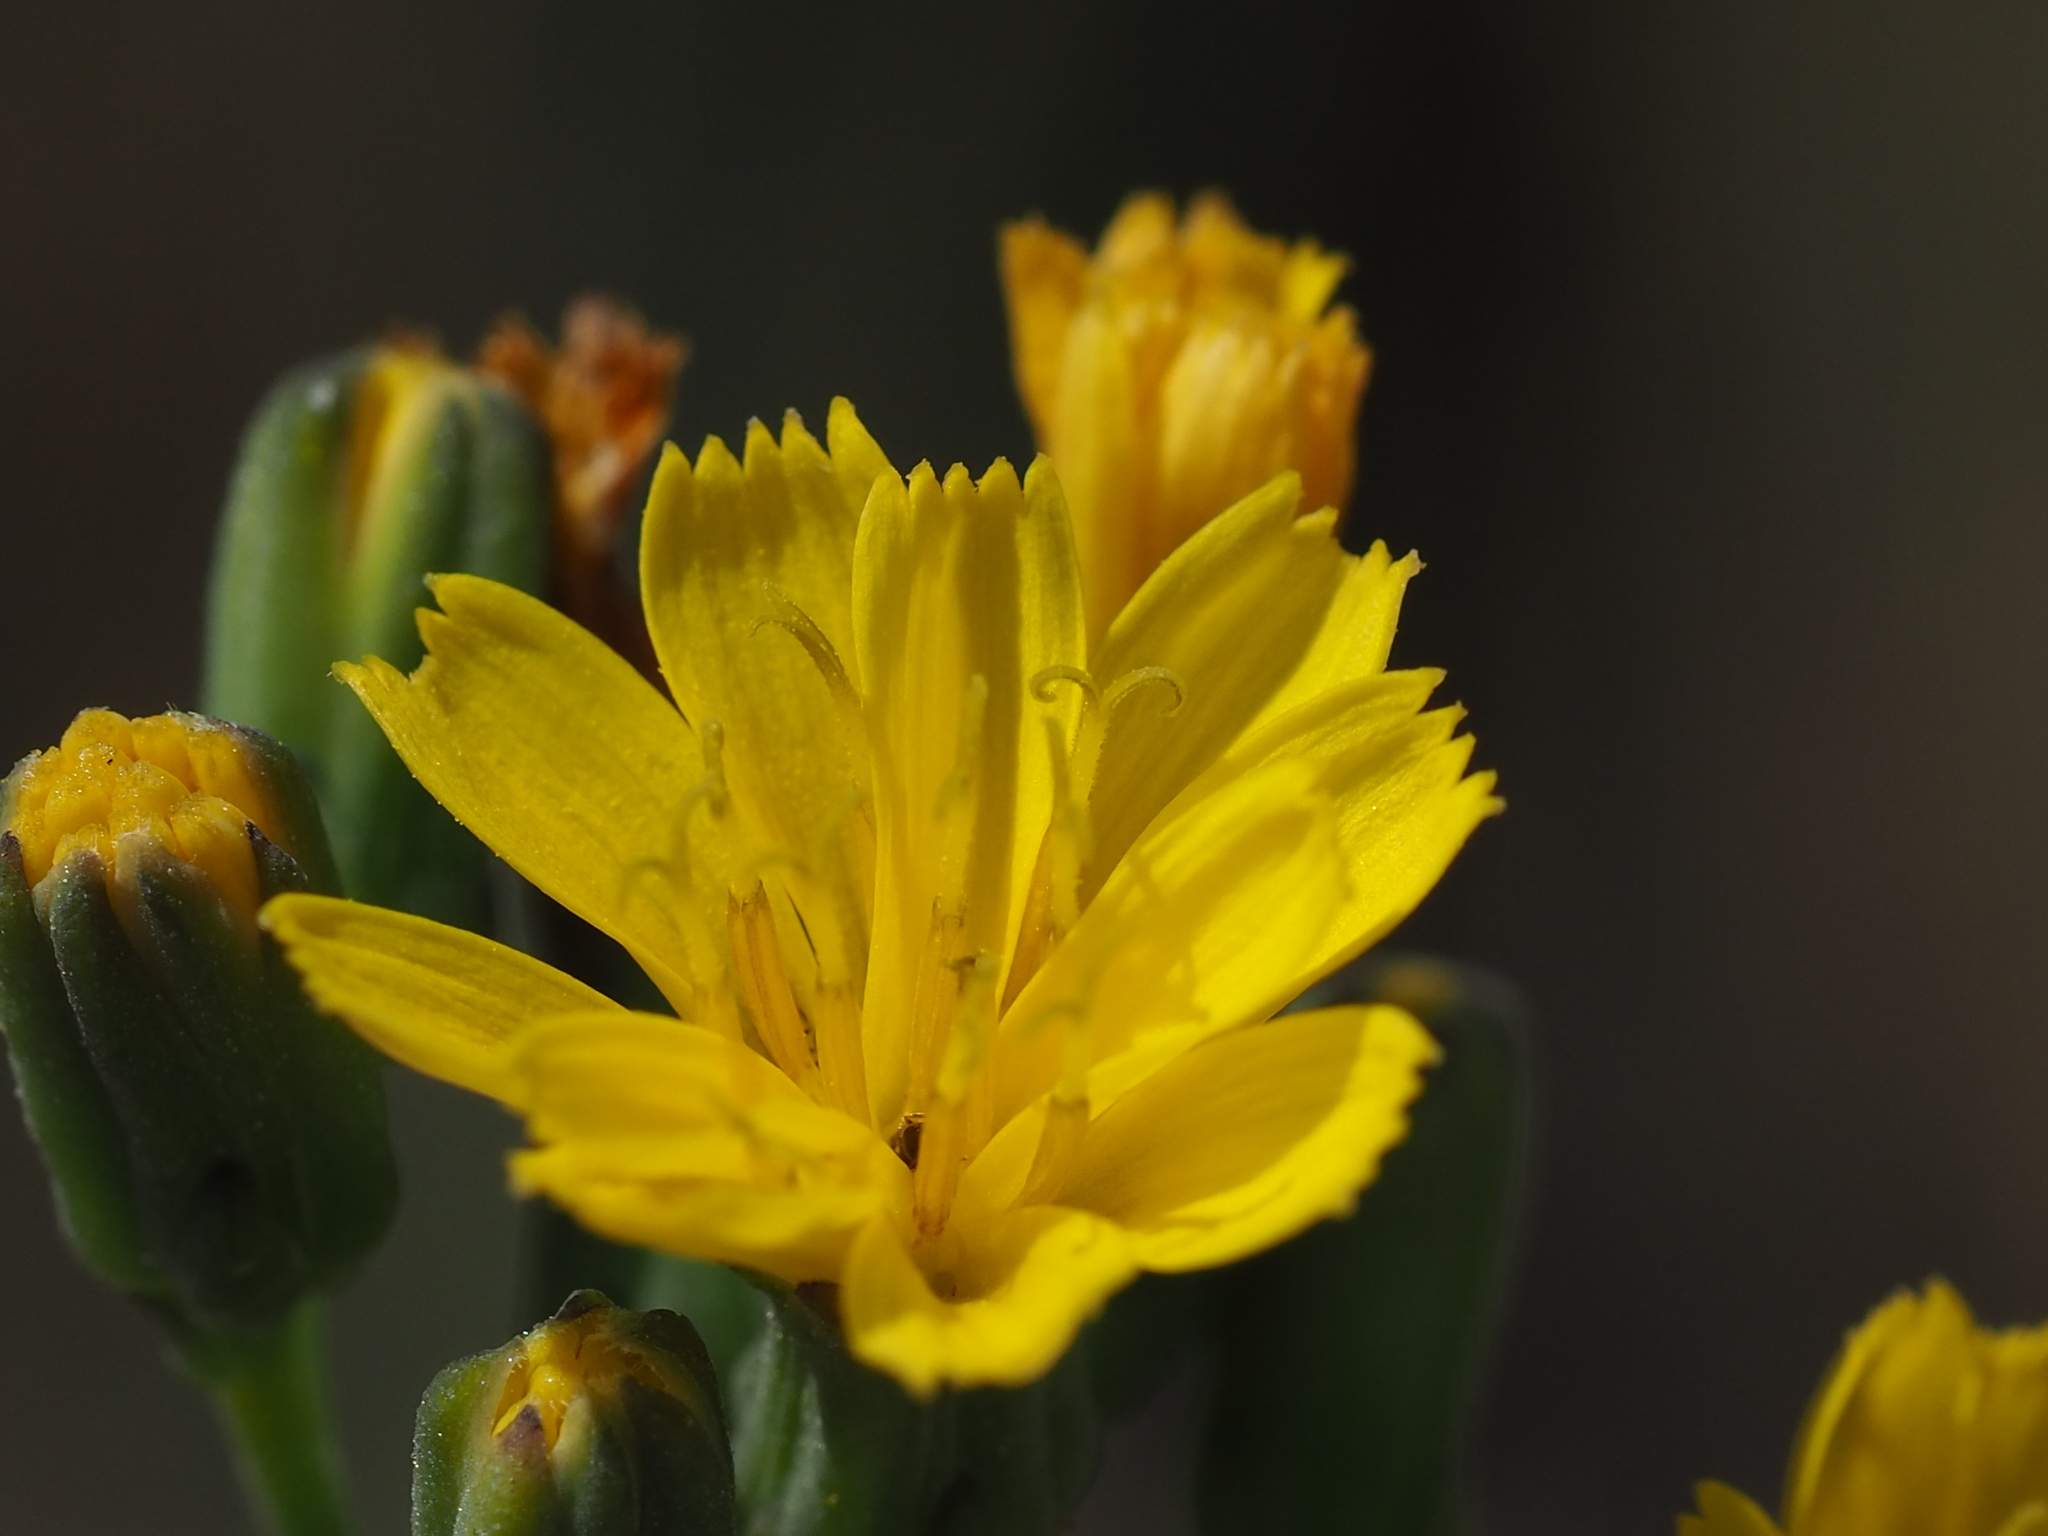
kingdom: Plantae
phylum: Tracheophyta
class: Magnoliopsida
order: Asterales
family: Asteraceae
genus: Crepidiastrum
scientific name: Crepidiastrum lanceolatum
